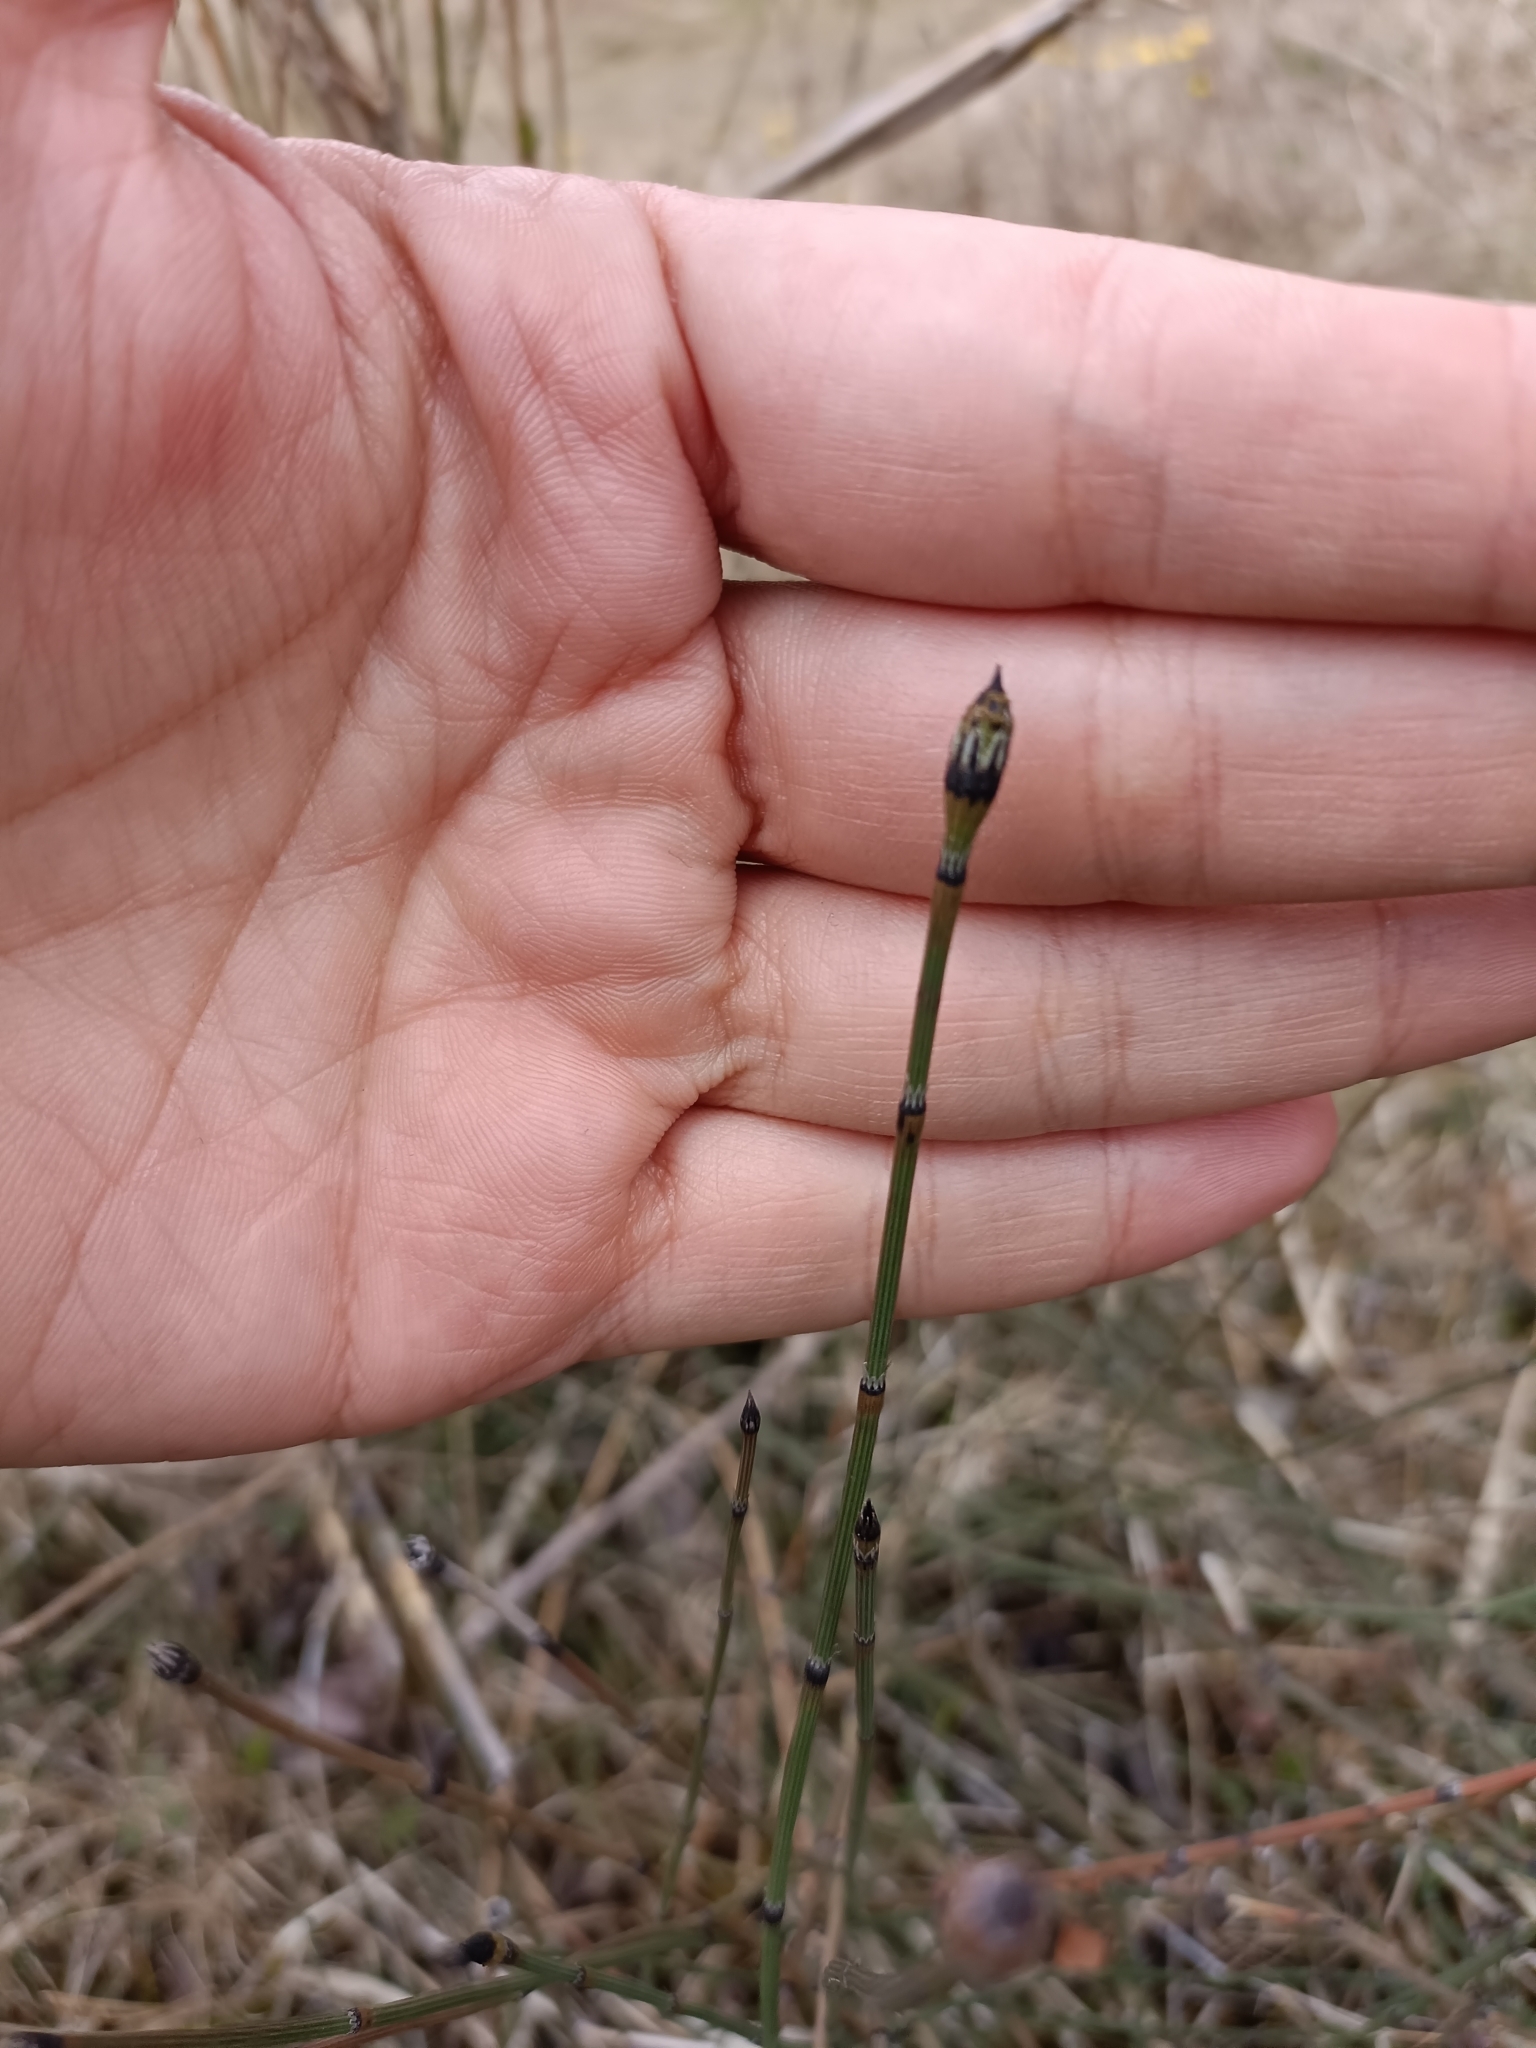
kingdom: Plantae
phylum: Tracheophyta
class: Polypodiopsida
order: Equisetales
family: Equisetaceae
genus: Equisetum
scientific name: Equisetum variegatum
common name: Variegated horsetail
